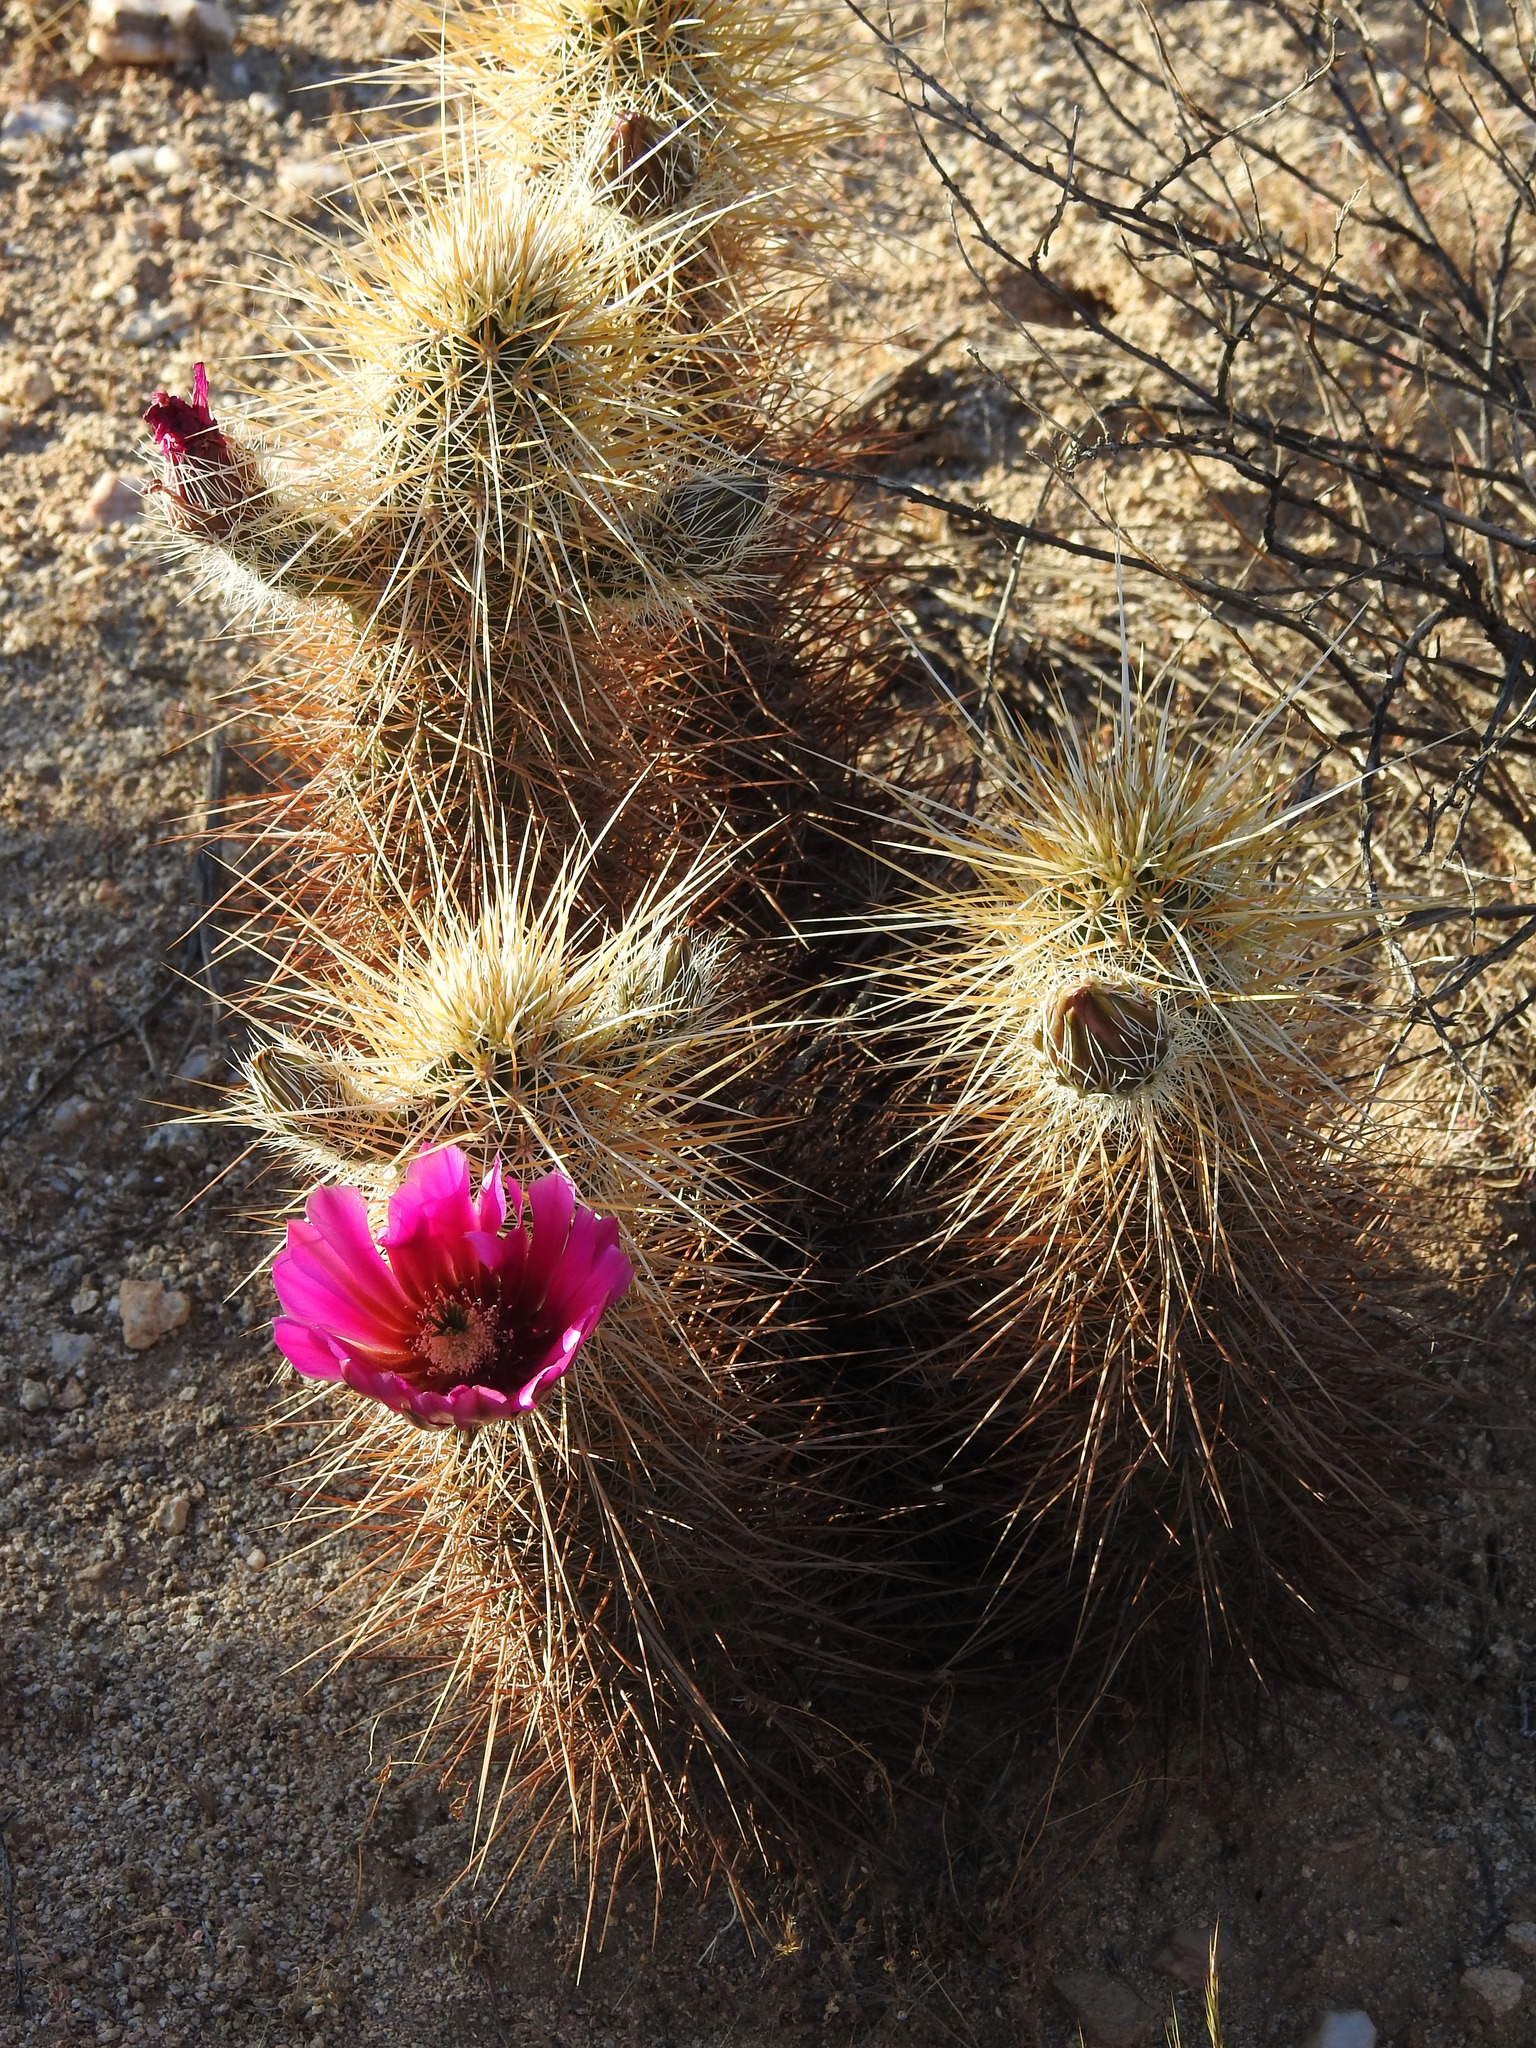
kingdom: Plantae
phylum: Tracheophyta
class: Magnoliopsida
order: Caryophyllales
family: Cactaceae
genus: Echinocereus
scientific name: Echinocereus engelmannii
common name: Engelmann's hedgehog cactus
